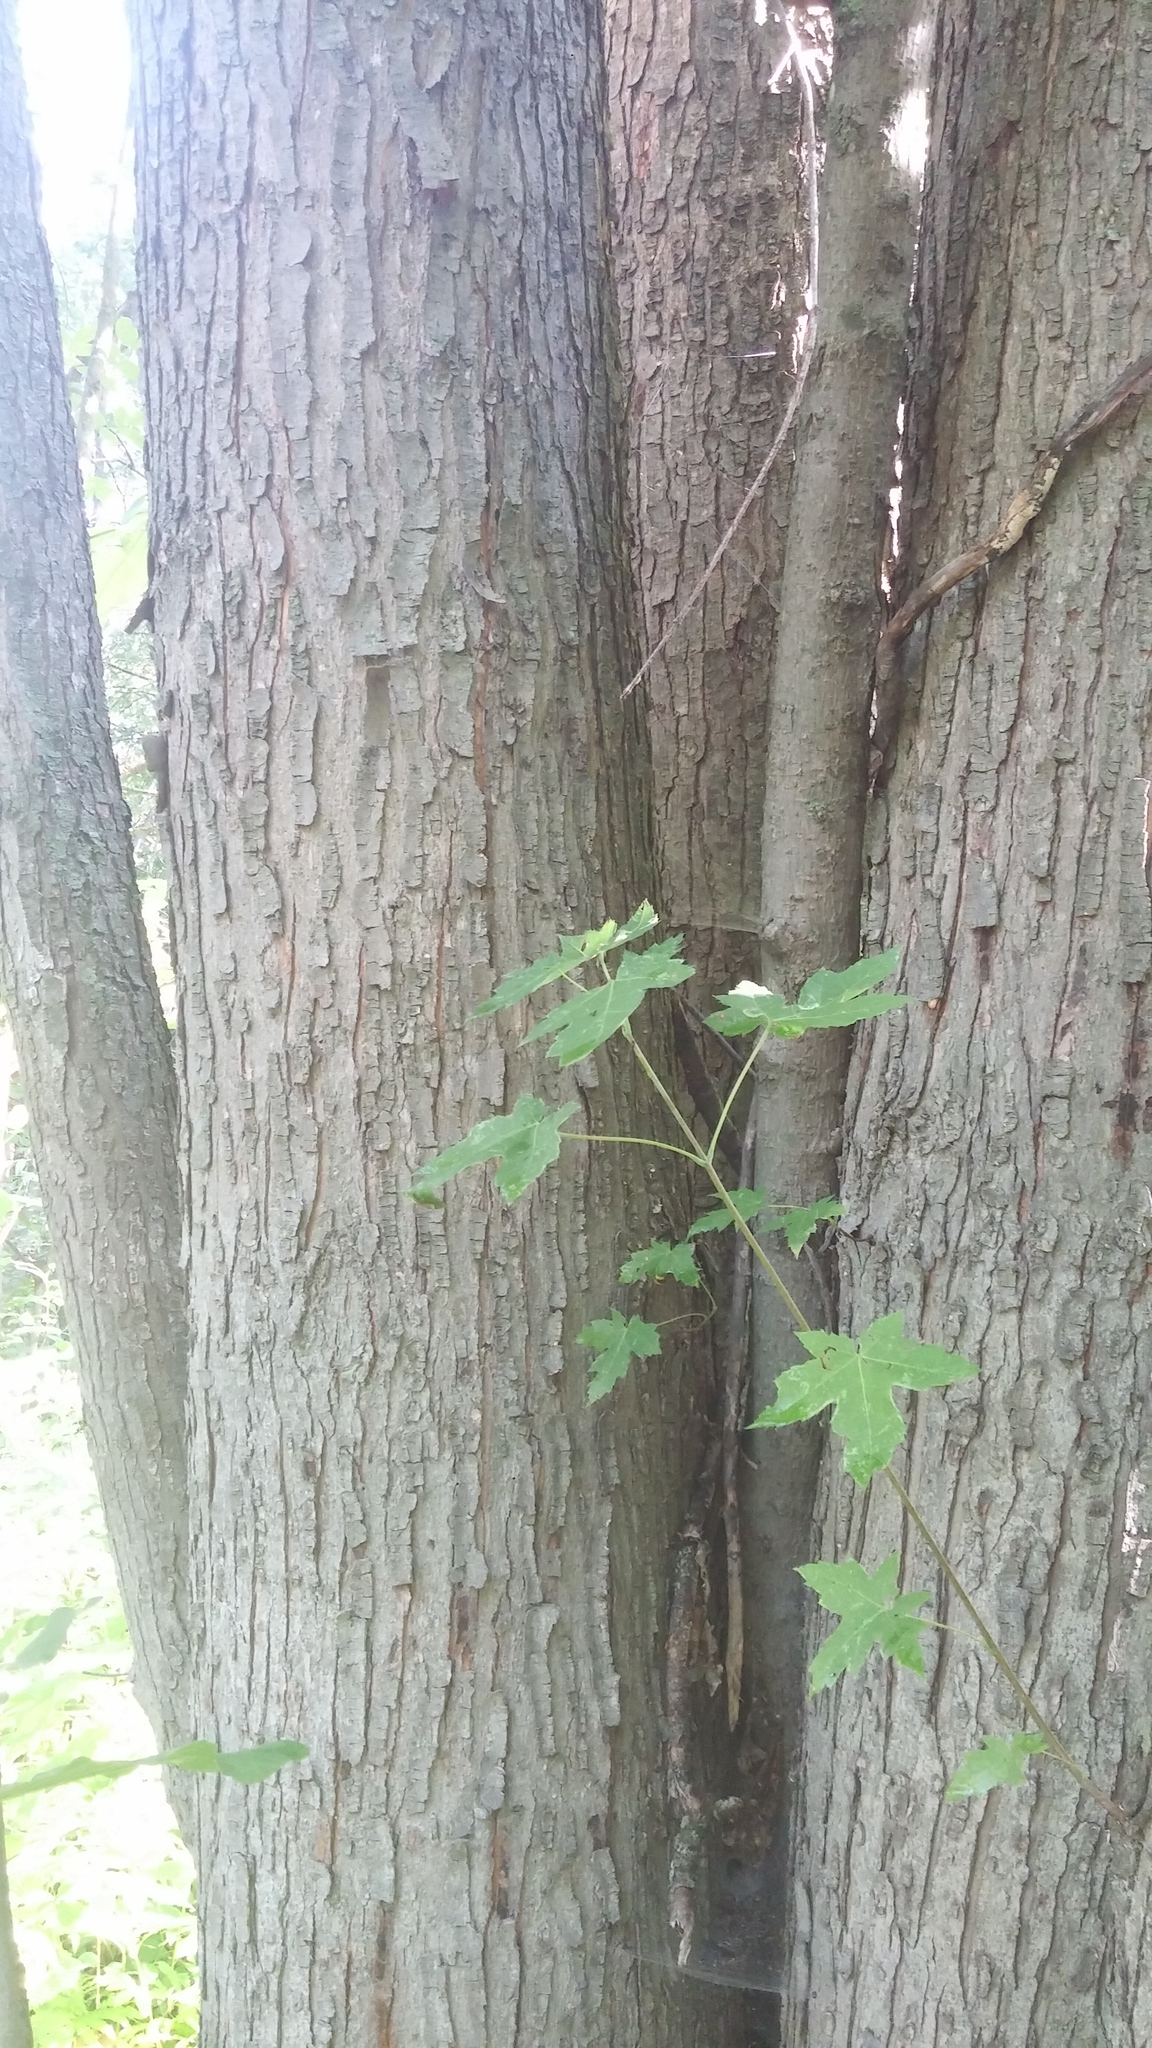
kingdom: Plantae
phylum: Tracheophyta
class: Magnoliopsida
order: Sapindales
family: Sapindaceae
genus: Acer
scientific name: Acer saccharinum
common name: Silver maple
